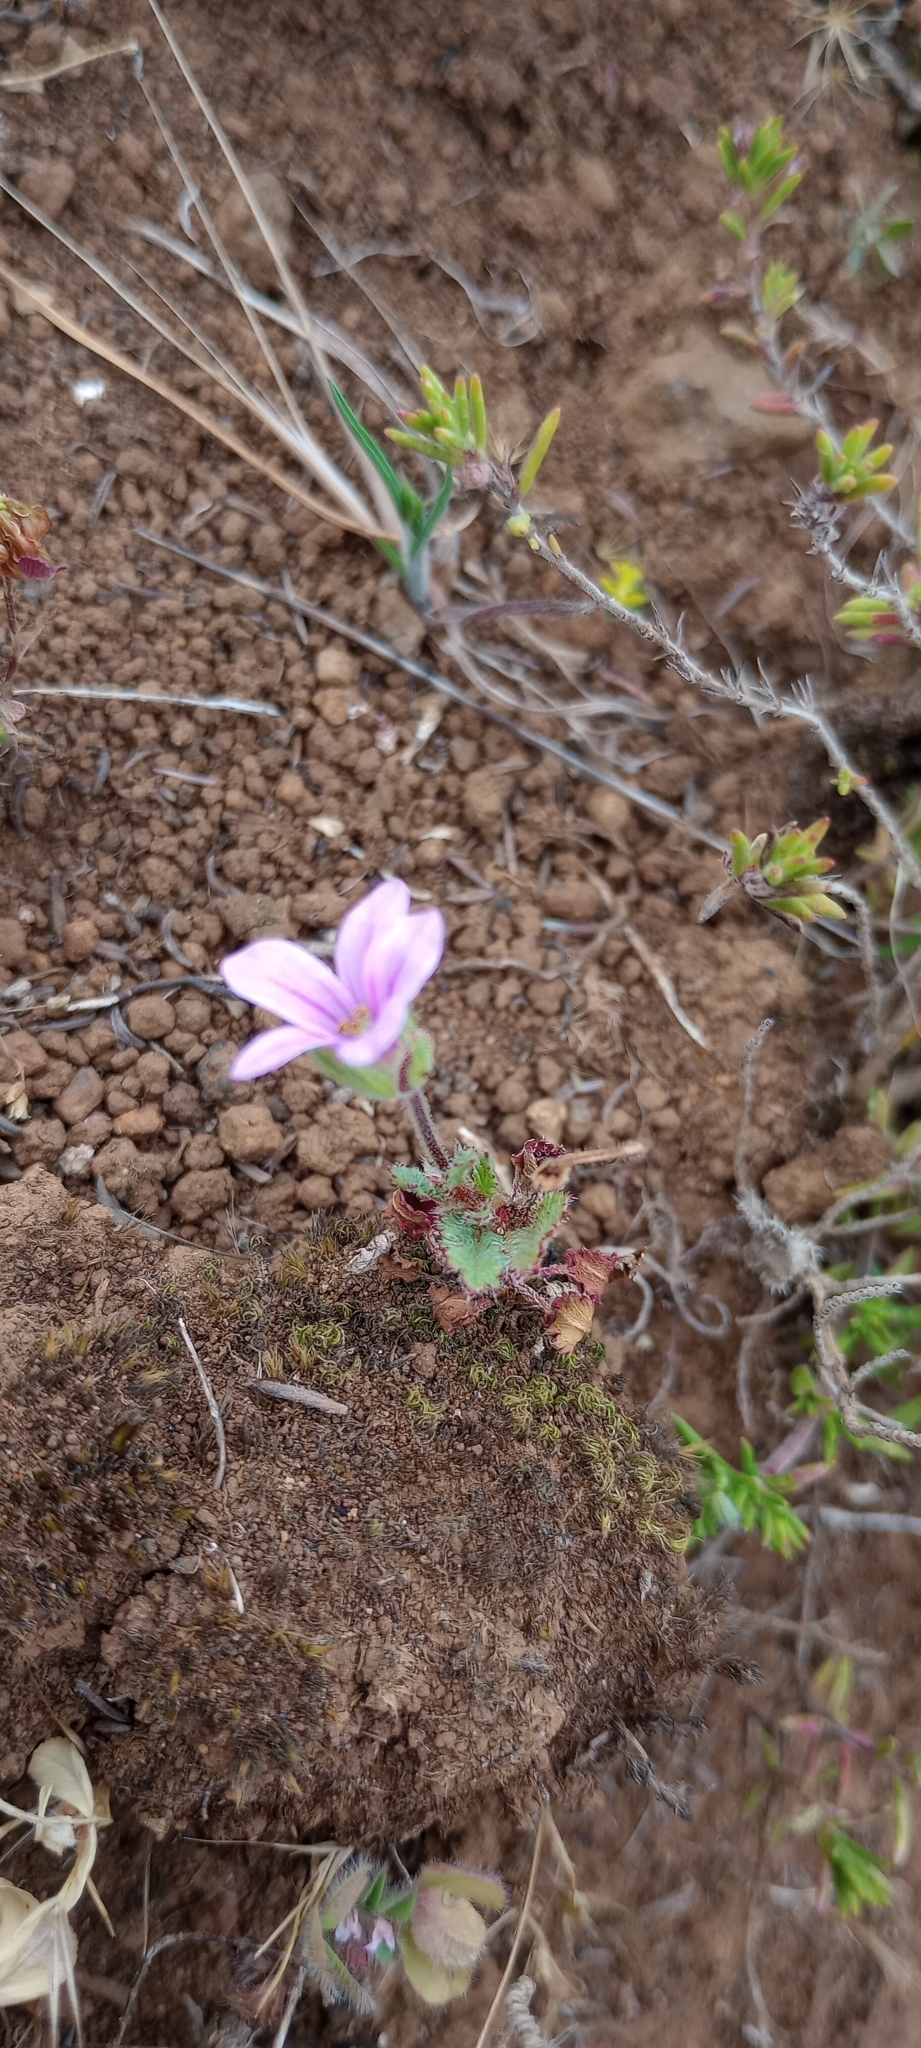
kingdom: Plantae
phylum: Tracheophyta
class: Magnoliopsida
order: Geraniales
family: Geraniaceae
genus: Erodium
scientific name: Erodium botrys
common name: Mediterranean stork's-bill
